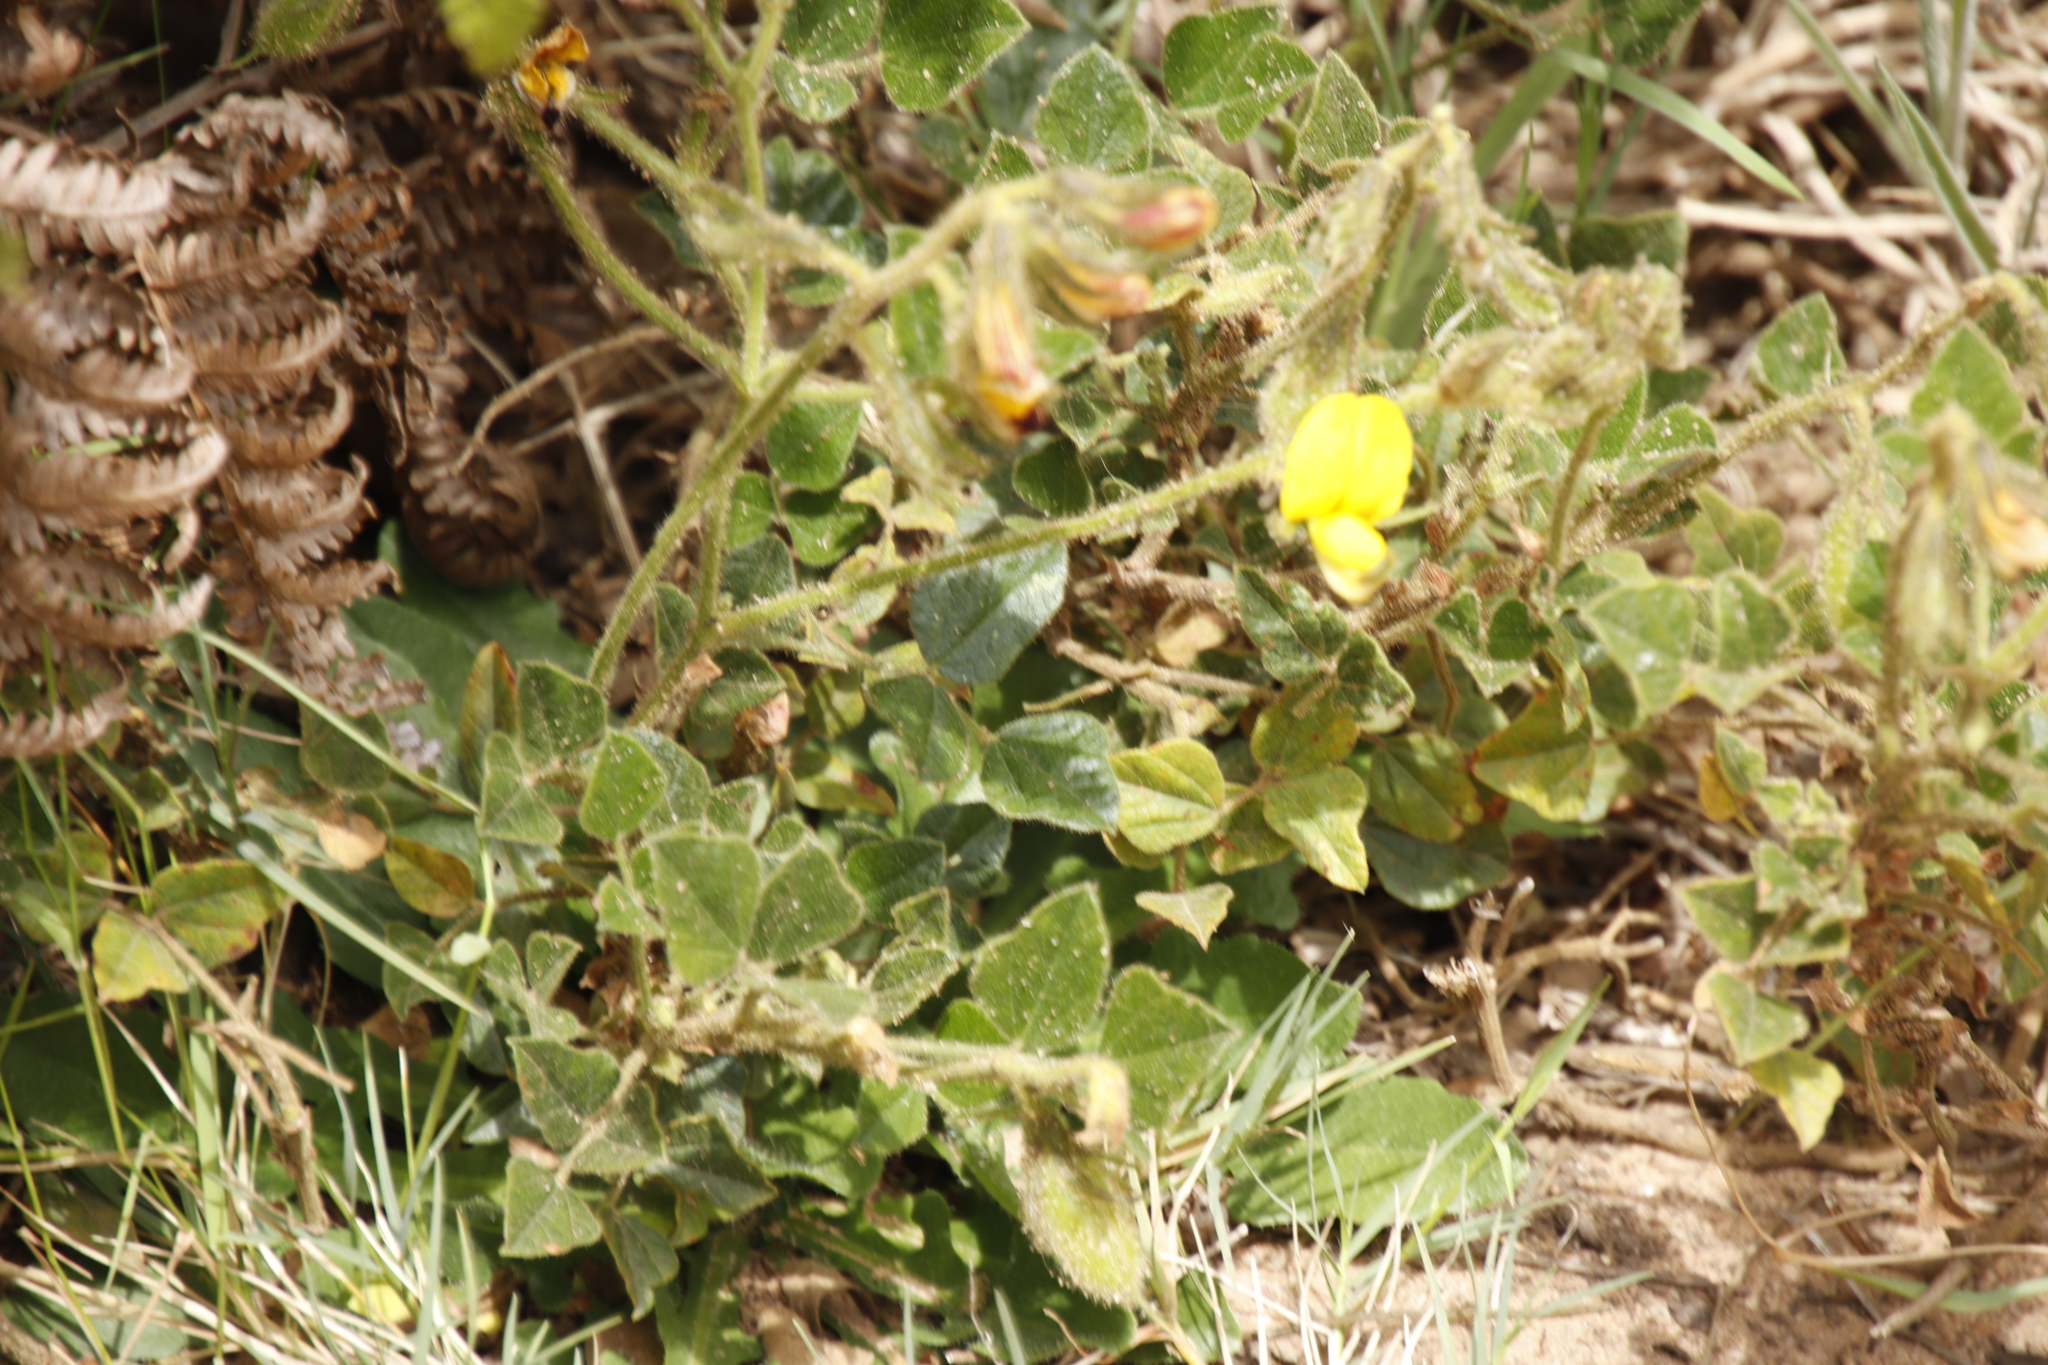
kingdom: Plantae
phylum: Tracheophyta
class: Magnoliopsida
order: Fabales
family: Fabaceae
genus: Bolusafra
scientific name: Bolusafra bituminosa
